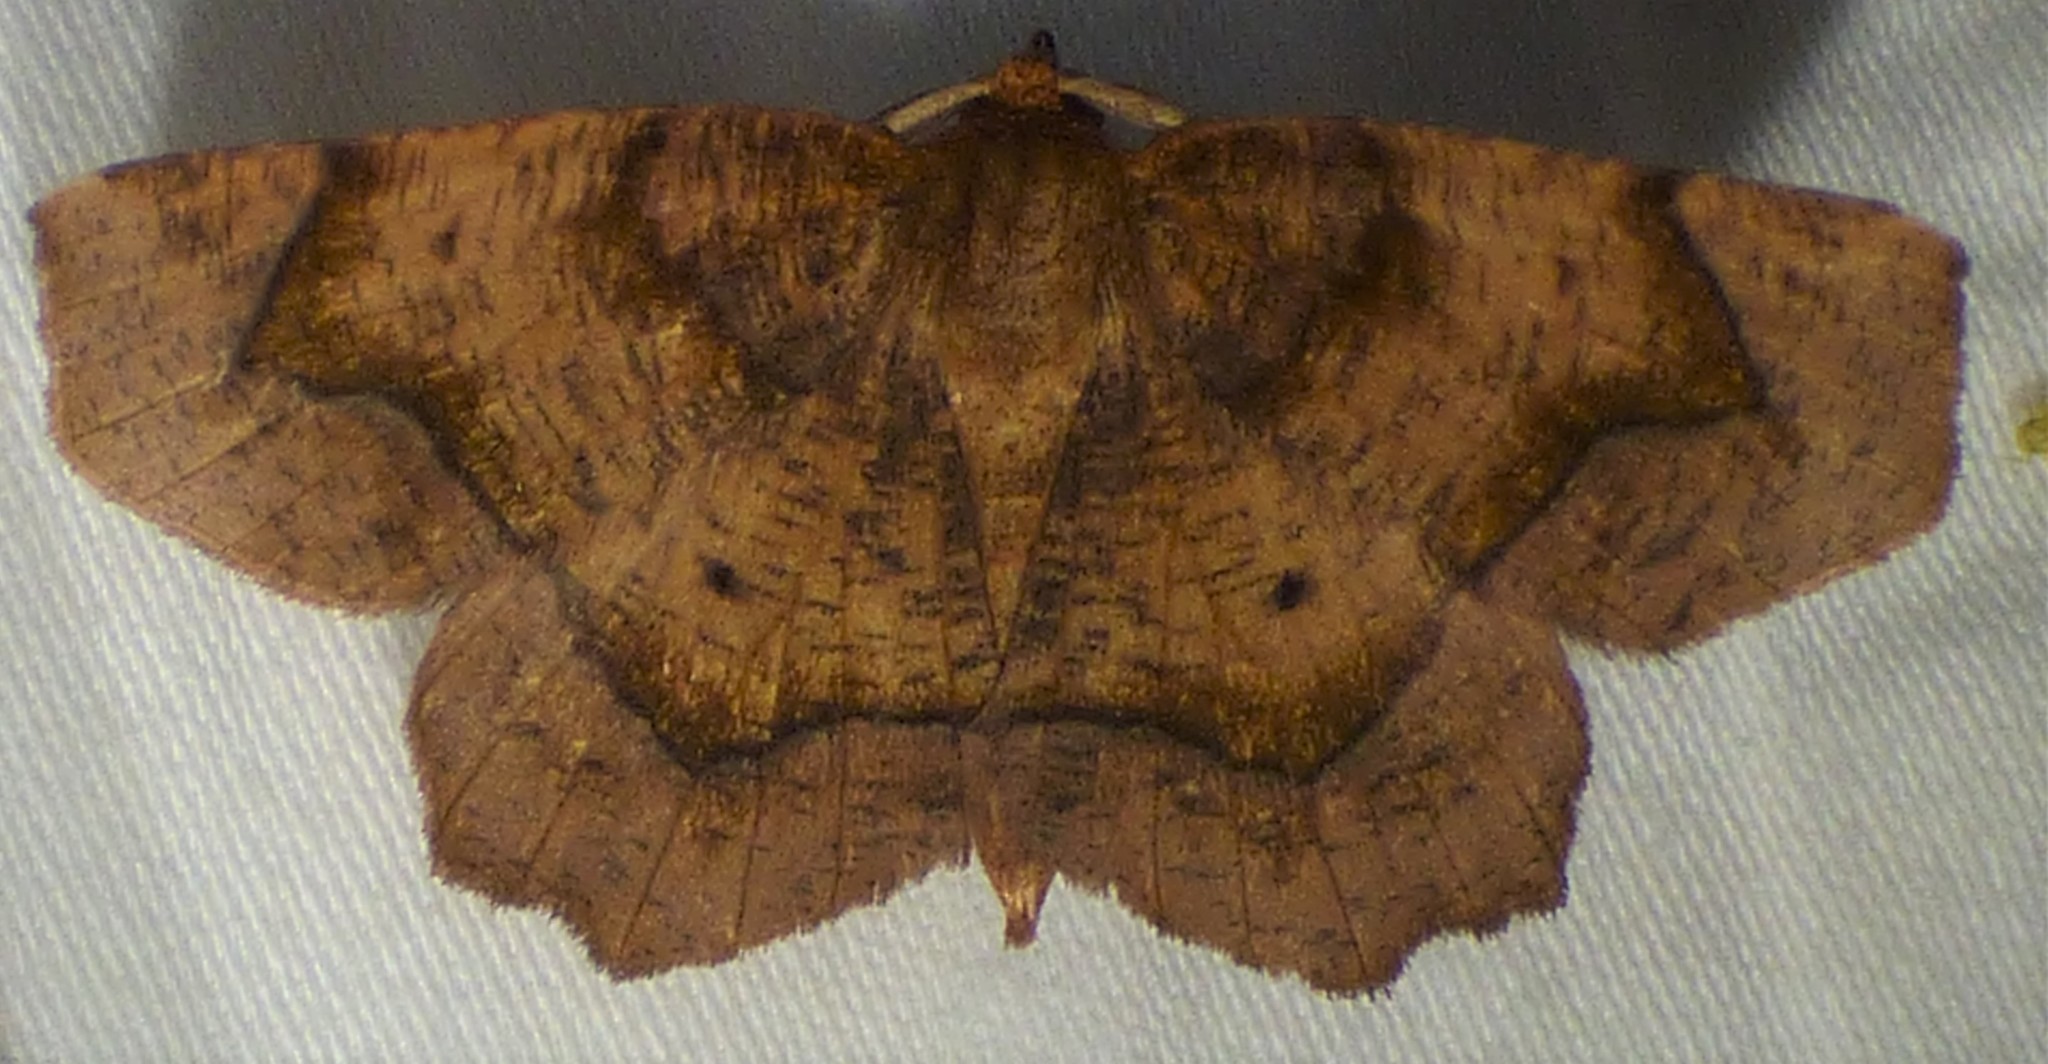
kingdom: Animalia
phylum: Arthropoda
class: Insecta
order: Lepidoptera
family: Geometridae
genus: Metarranthis
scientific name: Metarranthis homuraria
